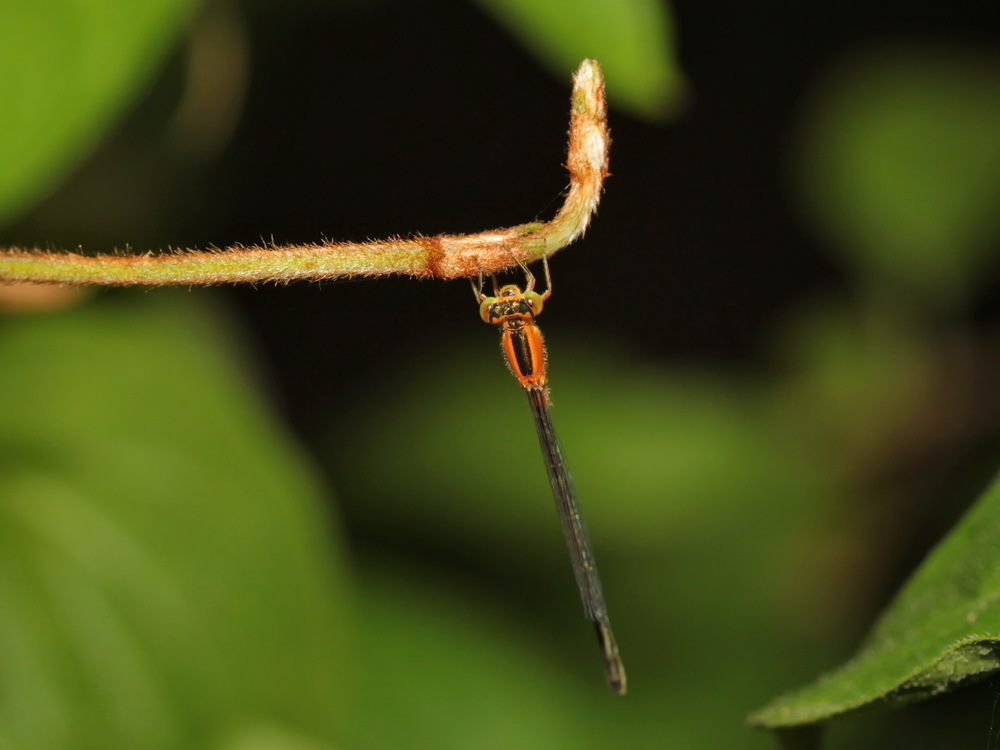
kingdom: Animalia
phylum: Arthropoda
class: Insecta
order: Odonata
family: Coenagrionidae
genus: Ischnura
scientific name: Ischnura senegalensis
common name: Tropical bluetail
